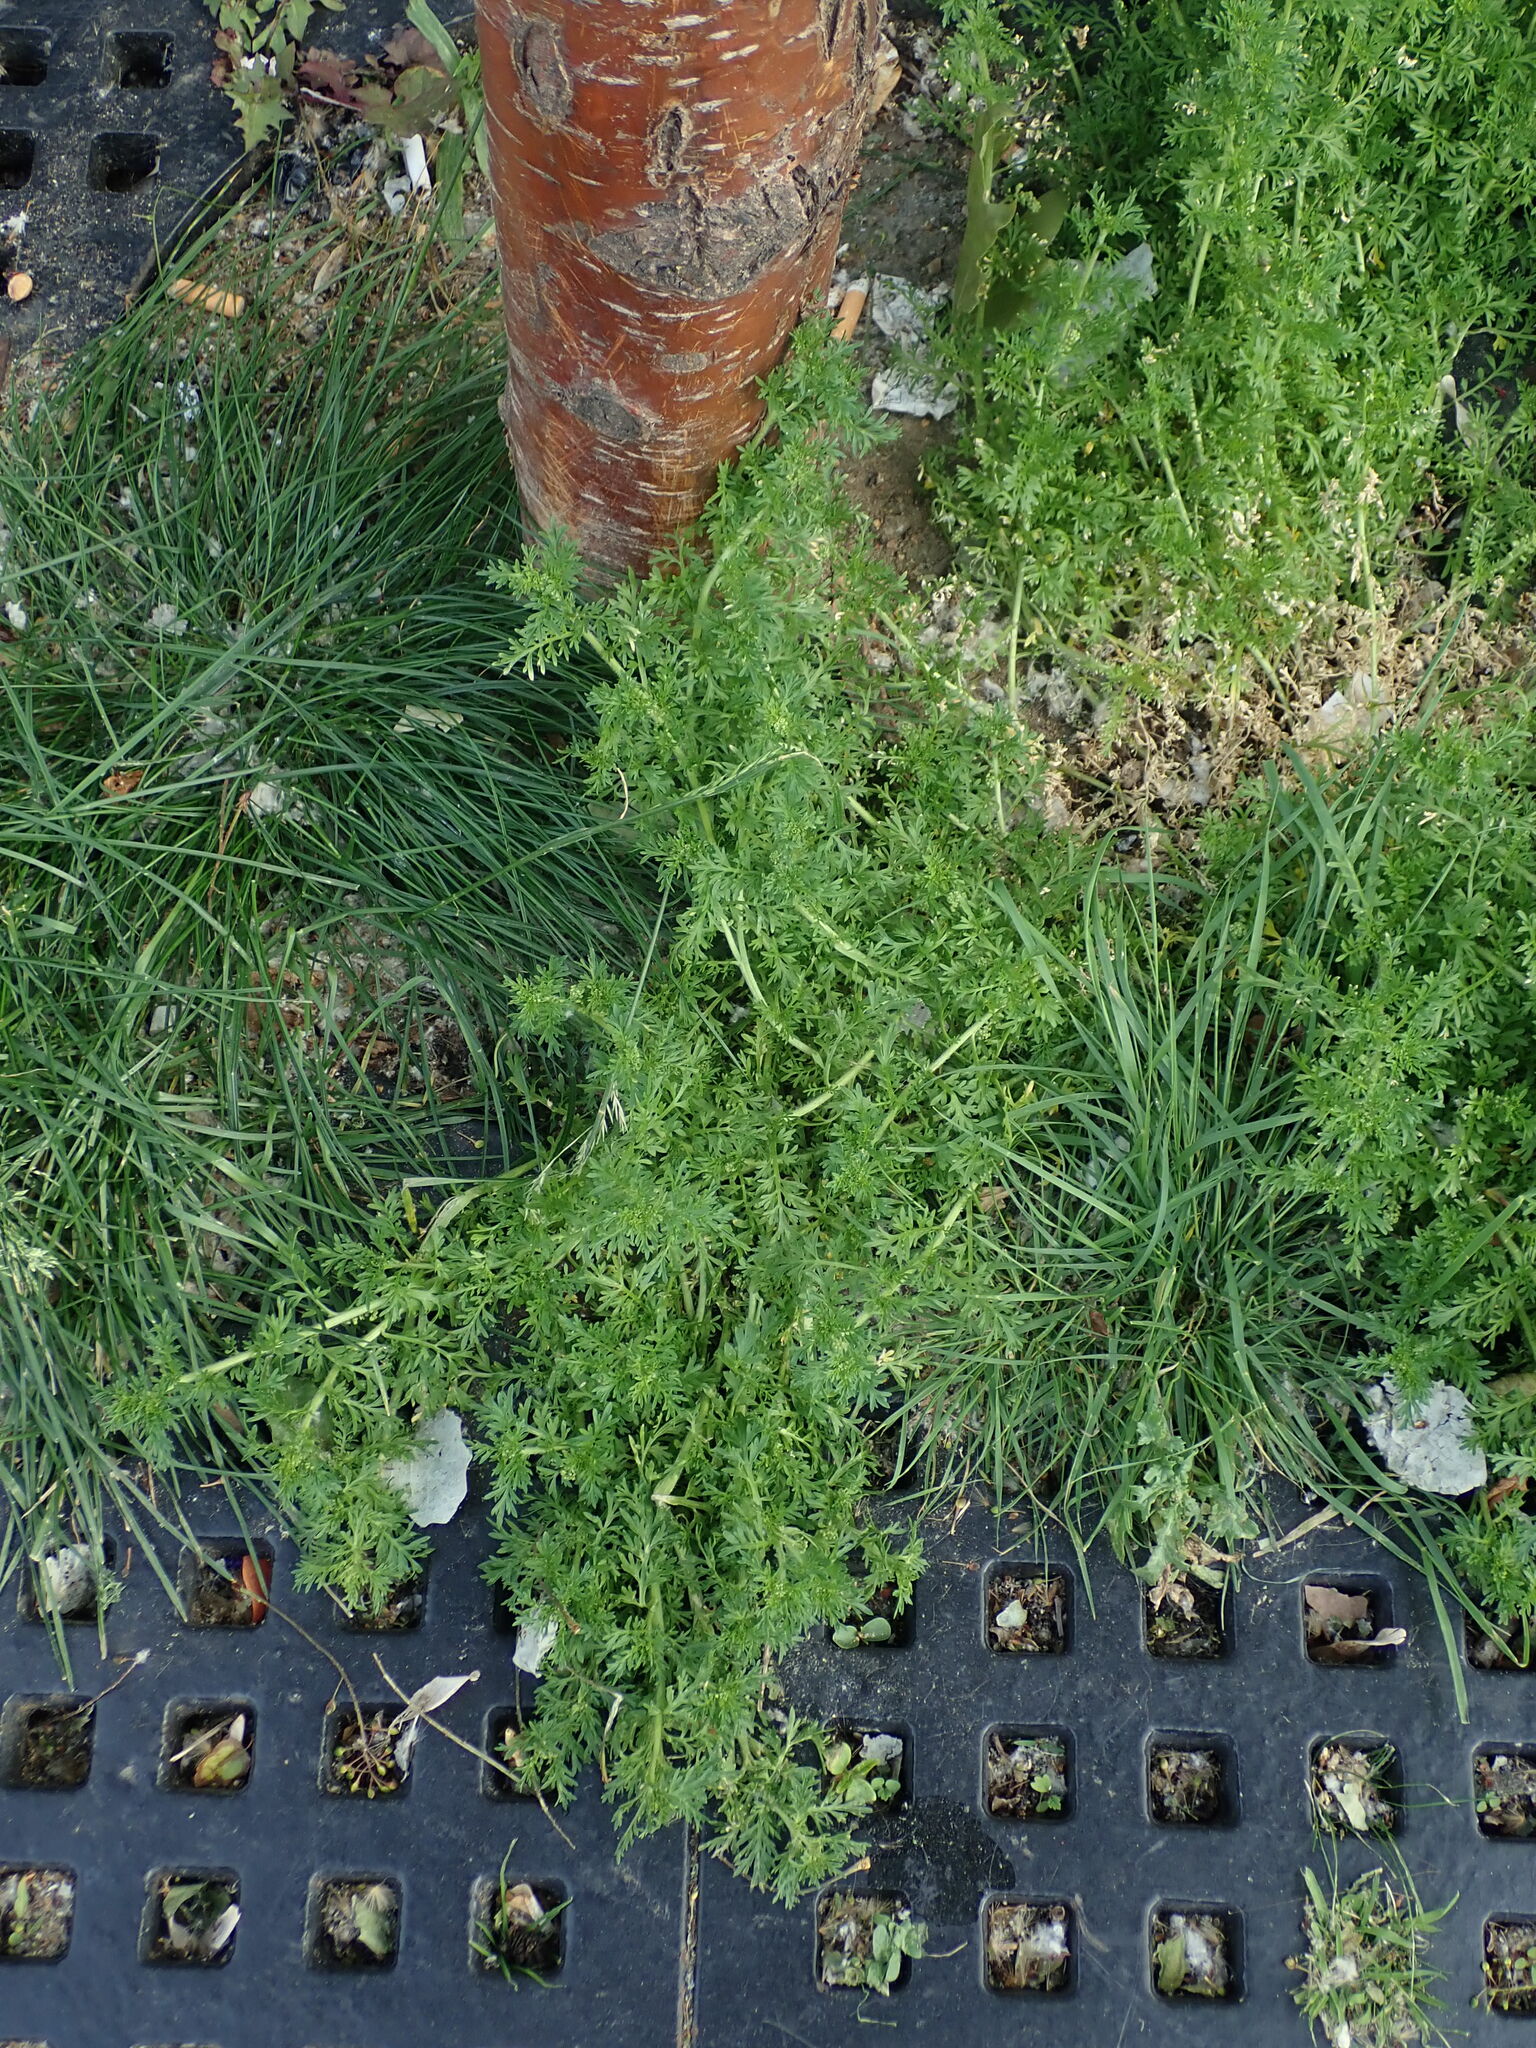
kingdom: Plantae
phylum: Tracheophyta
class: Magnoliopsida
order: Brassicales
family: Brassicaceae
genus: Lepidium
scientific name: Lepidium didymum
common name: Lesser swinecress
